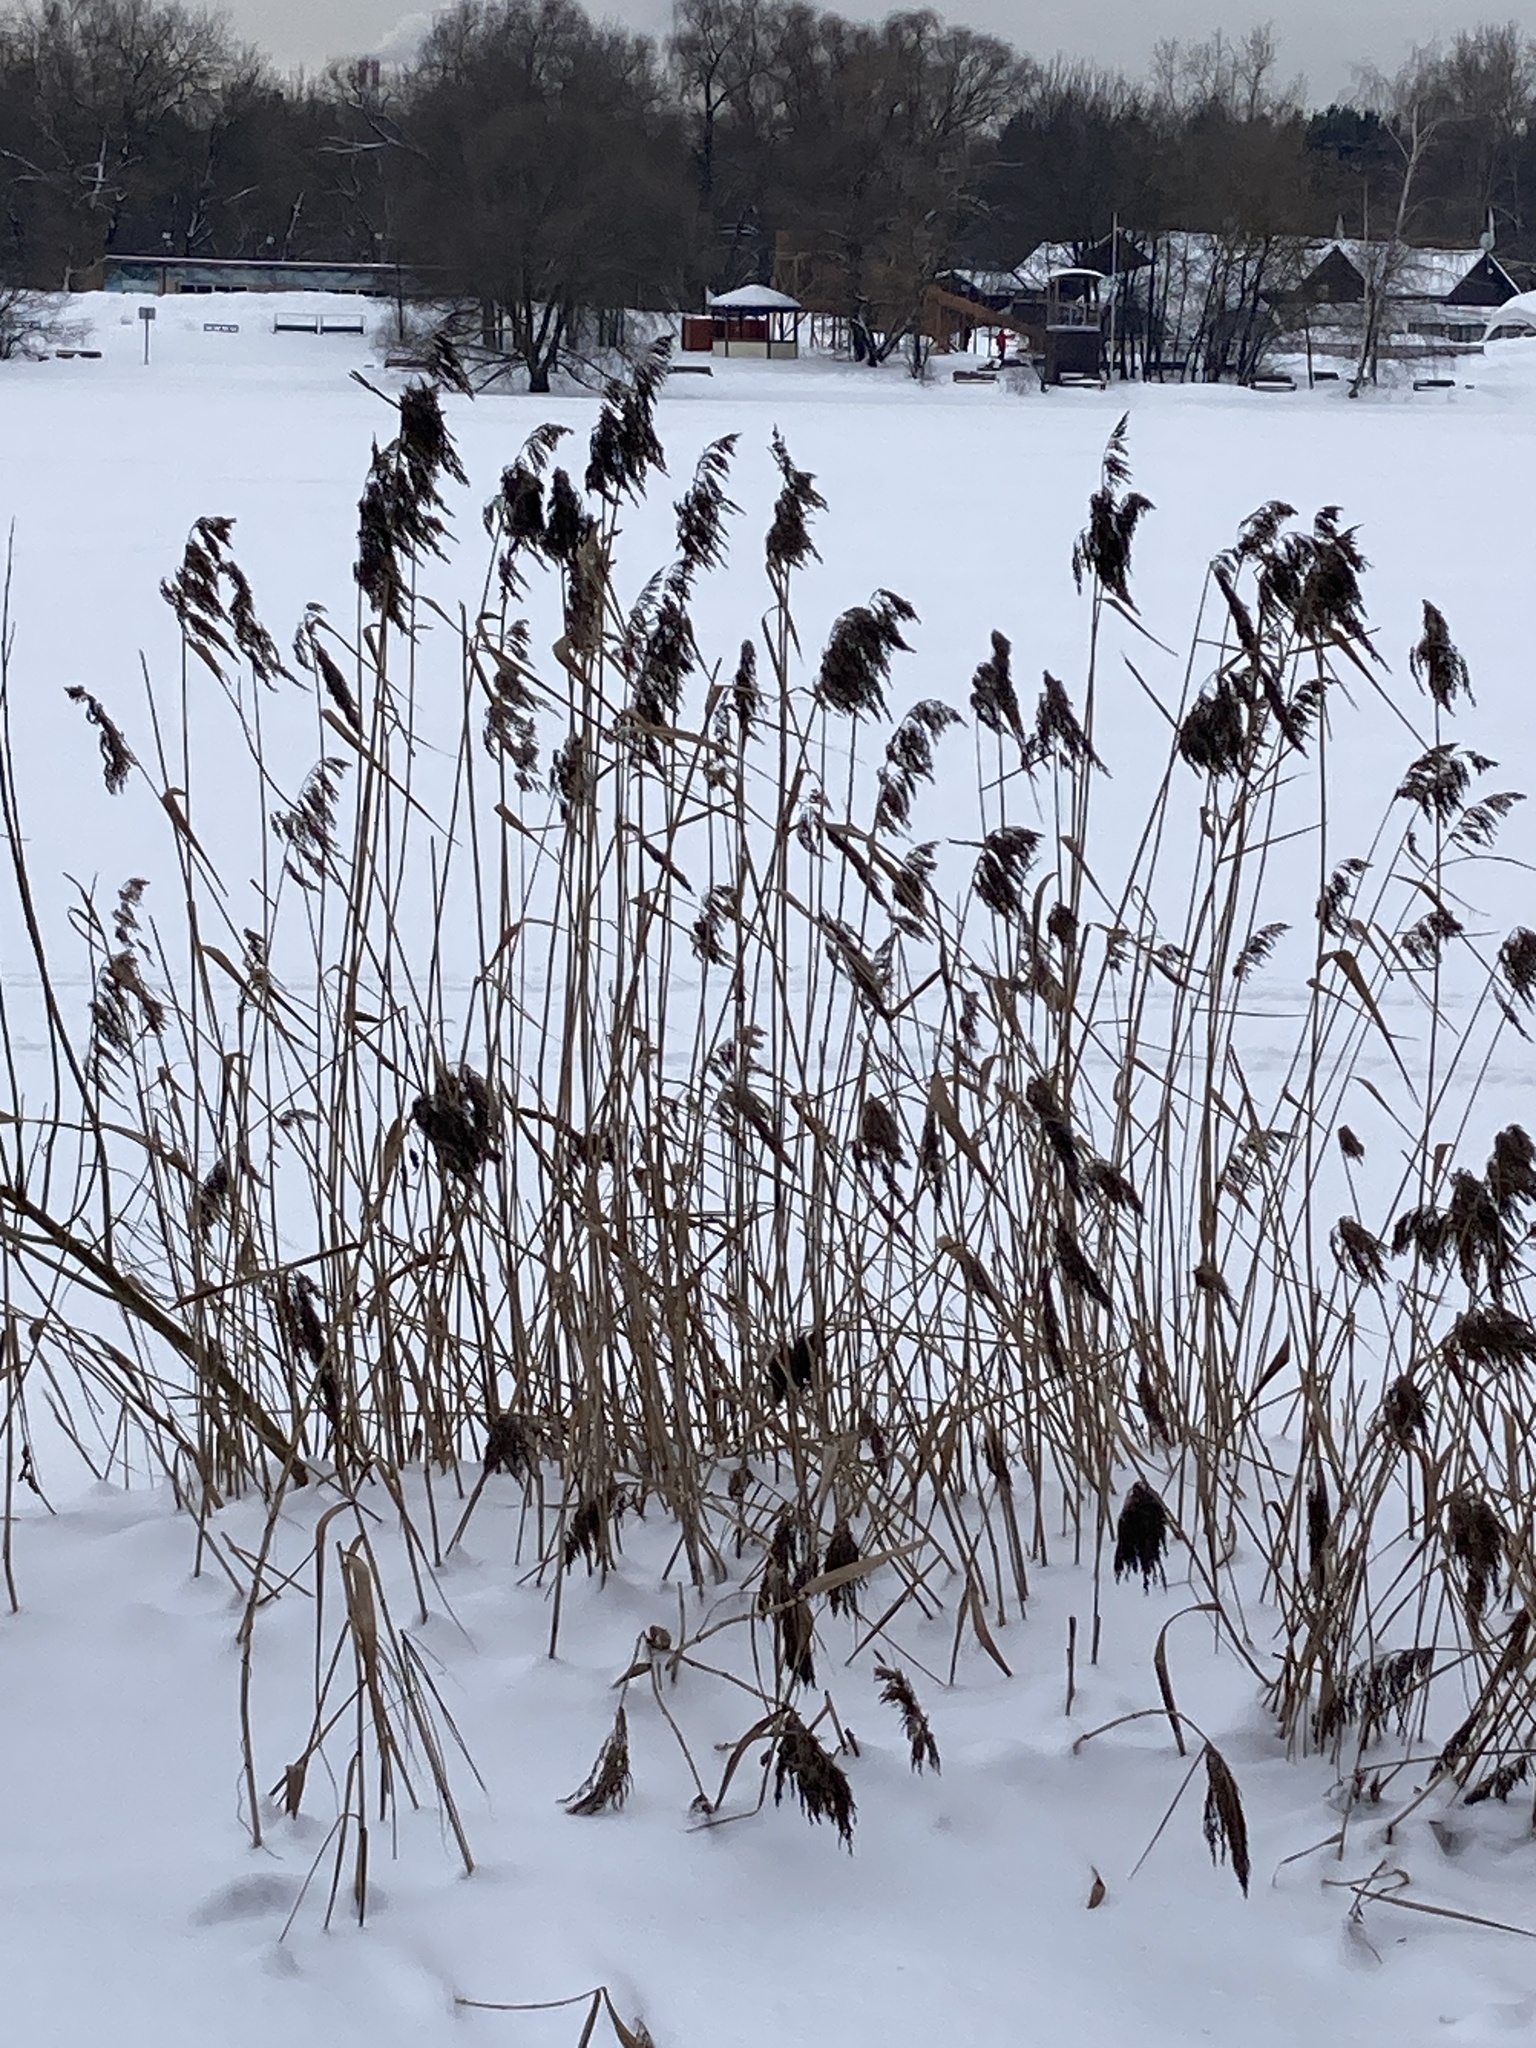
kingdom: Plantae
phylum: Tracheophyta
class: Liliopsida
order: Poales
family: Poaceae
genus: Phragmites
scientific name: Phragmites australis
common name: Common reed
